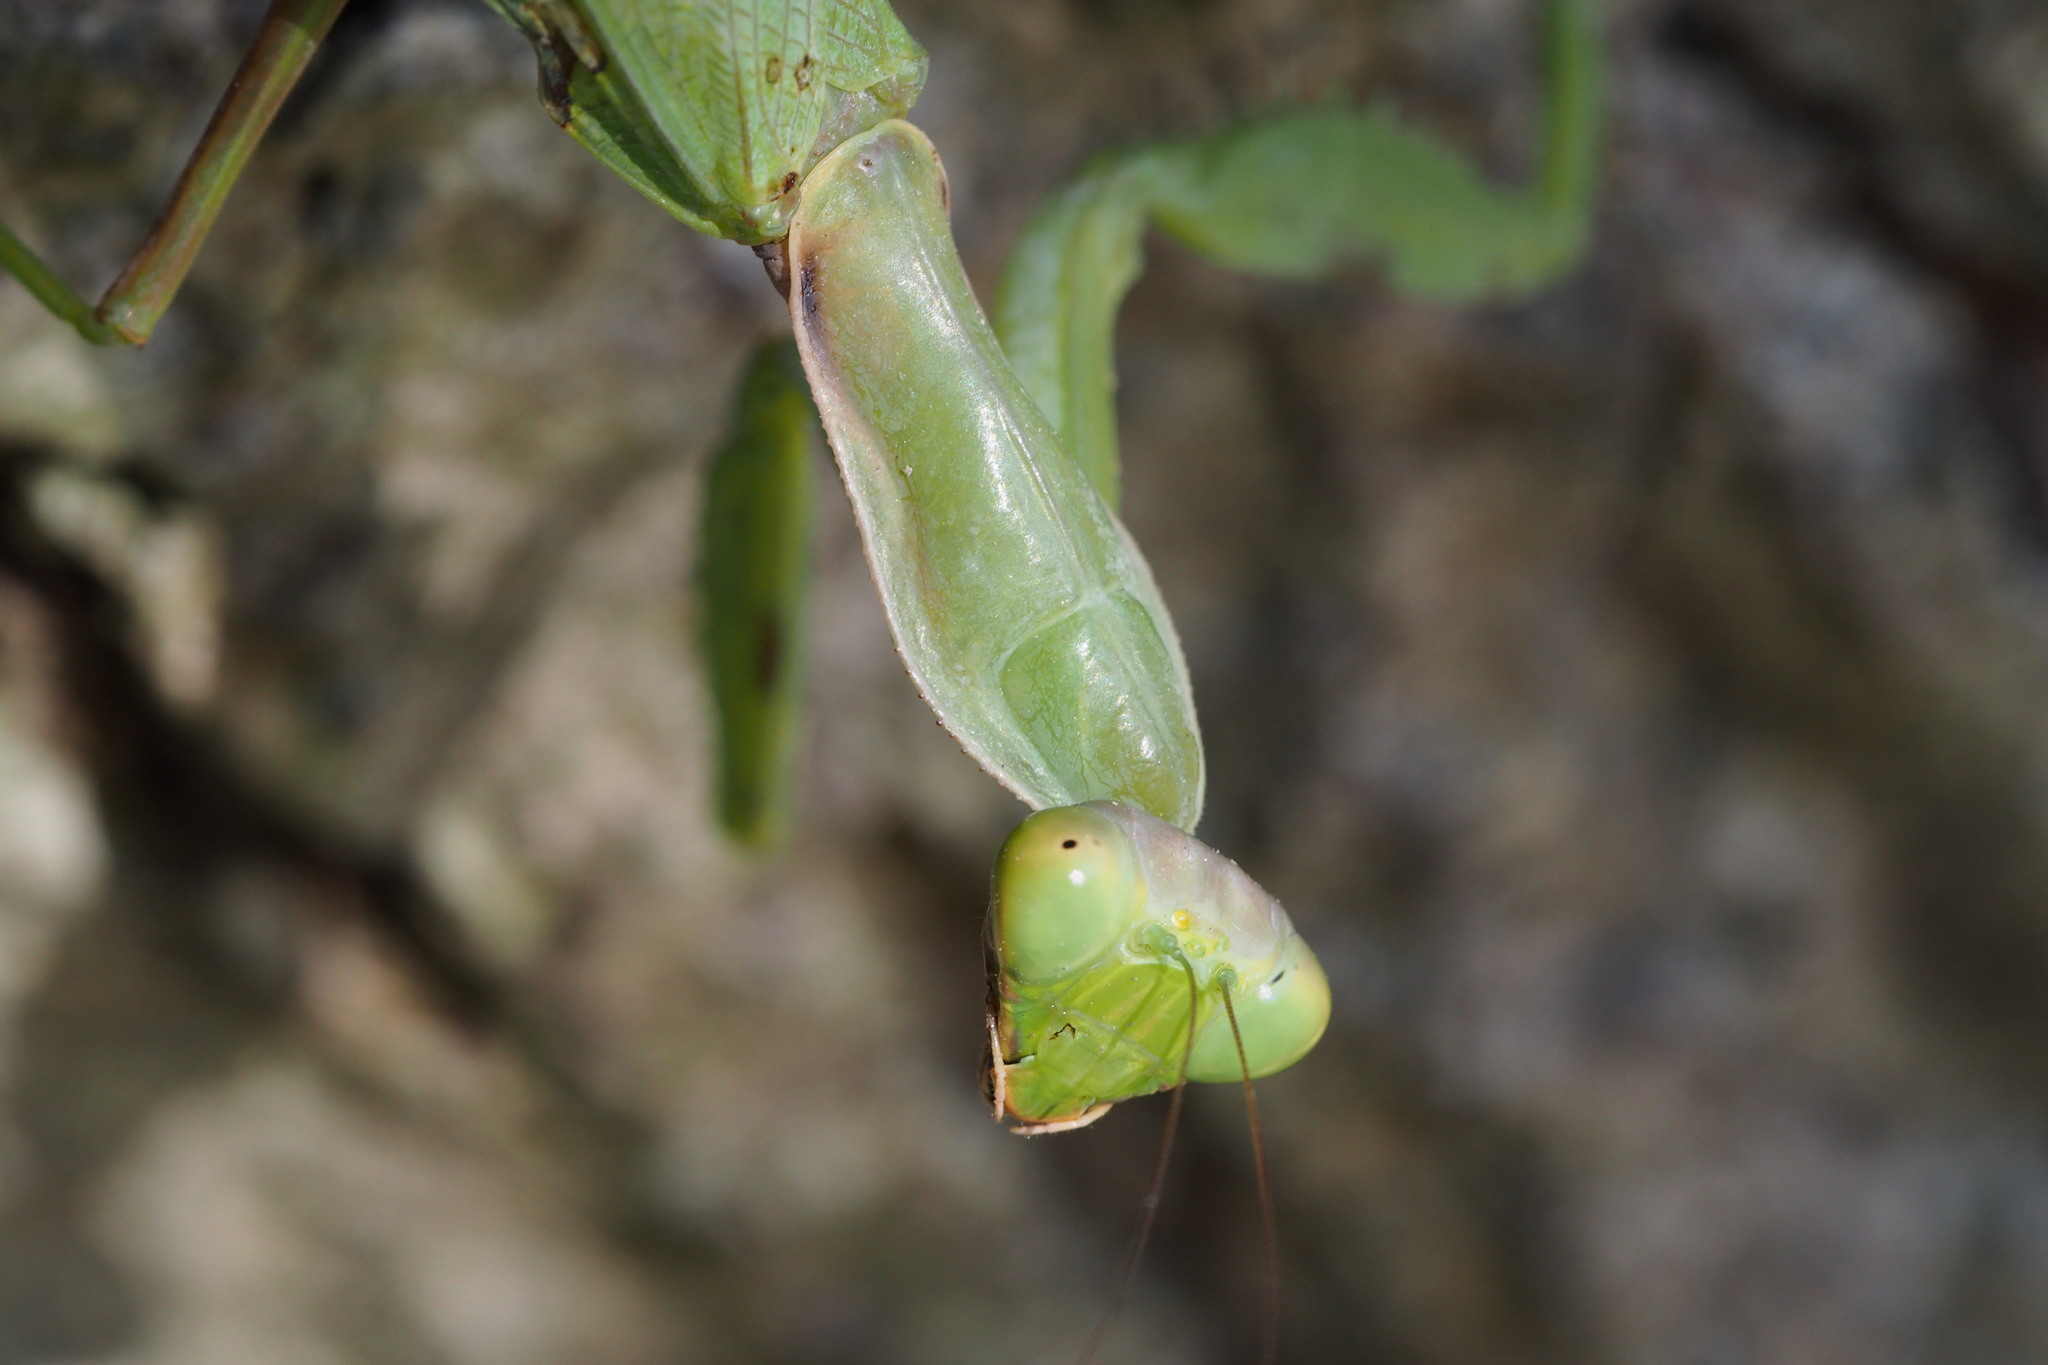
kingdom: Animalia
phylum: Arthropoda
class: Insecta
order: Mantodea
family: Mantidae
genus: Hierodula
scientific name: Hierodula patellifera
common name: Asian mantis
